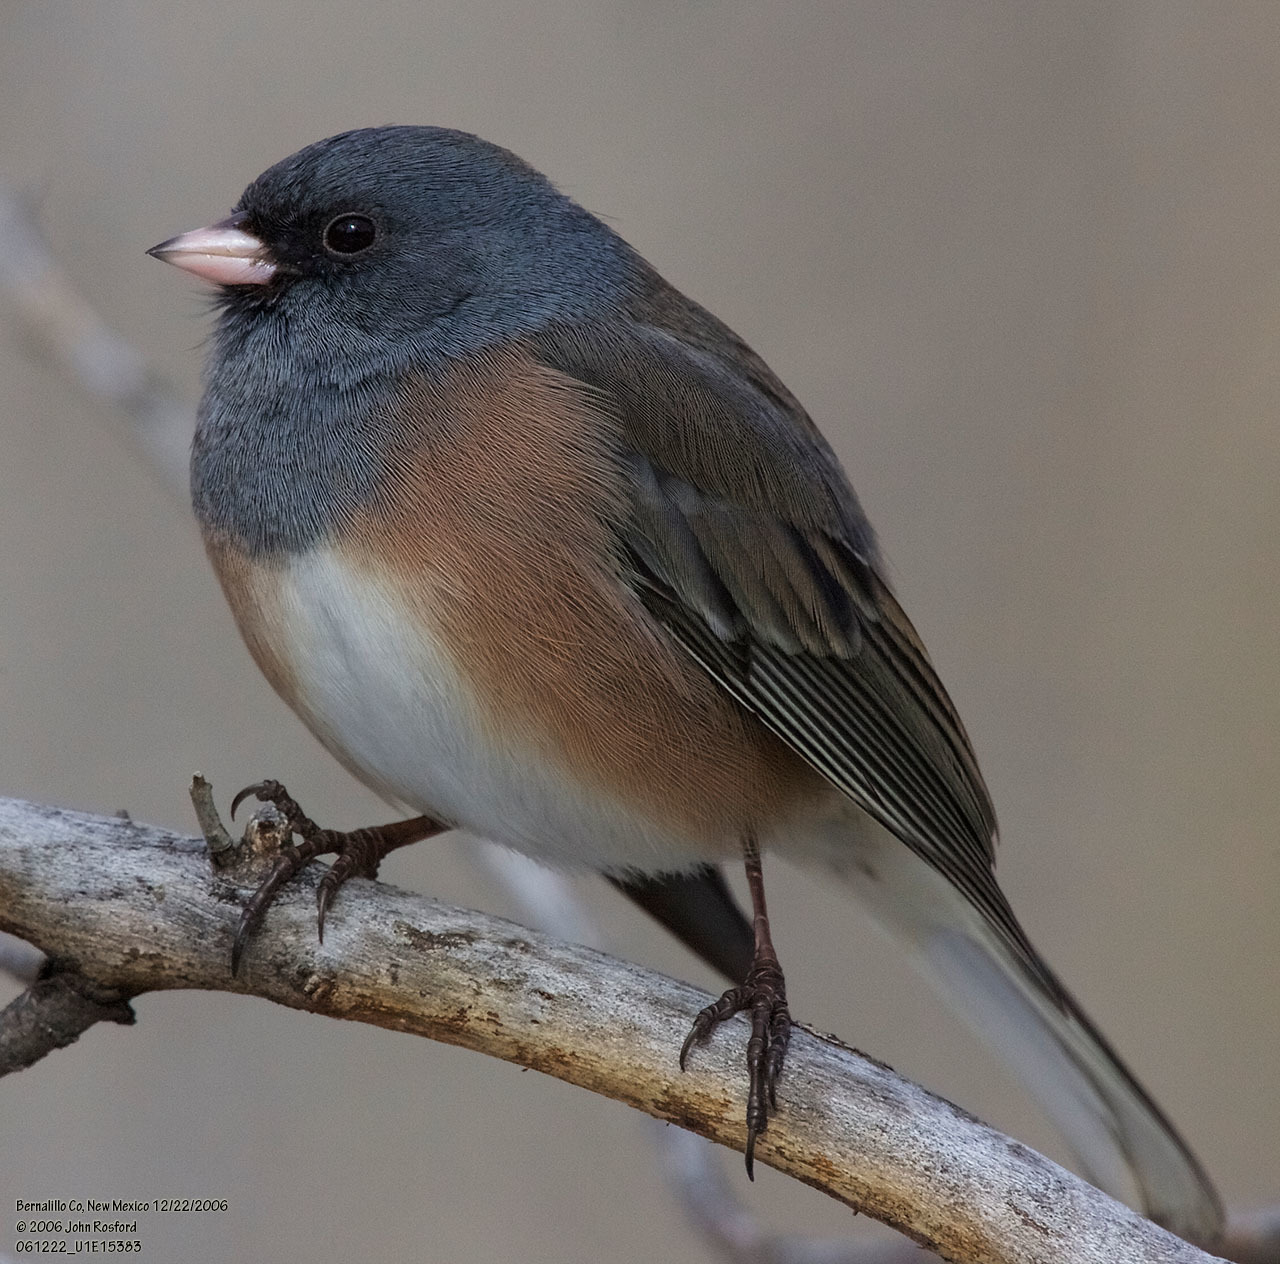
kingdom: Animalia
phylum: Chordata
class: Aves
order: Passeriformes
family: Passerellidae
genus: Junco
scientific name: Junco hyemalis
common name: Dark-eyed junco
